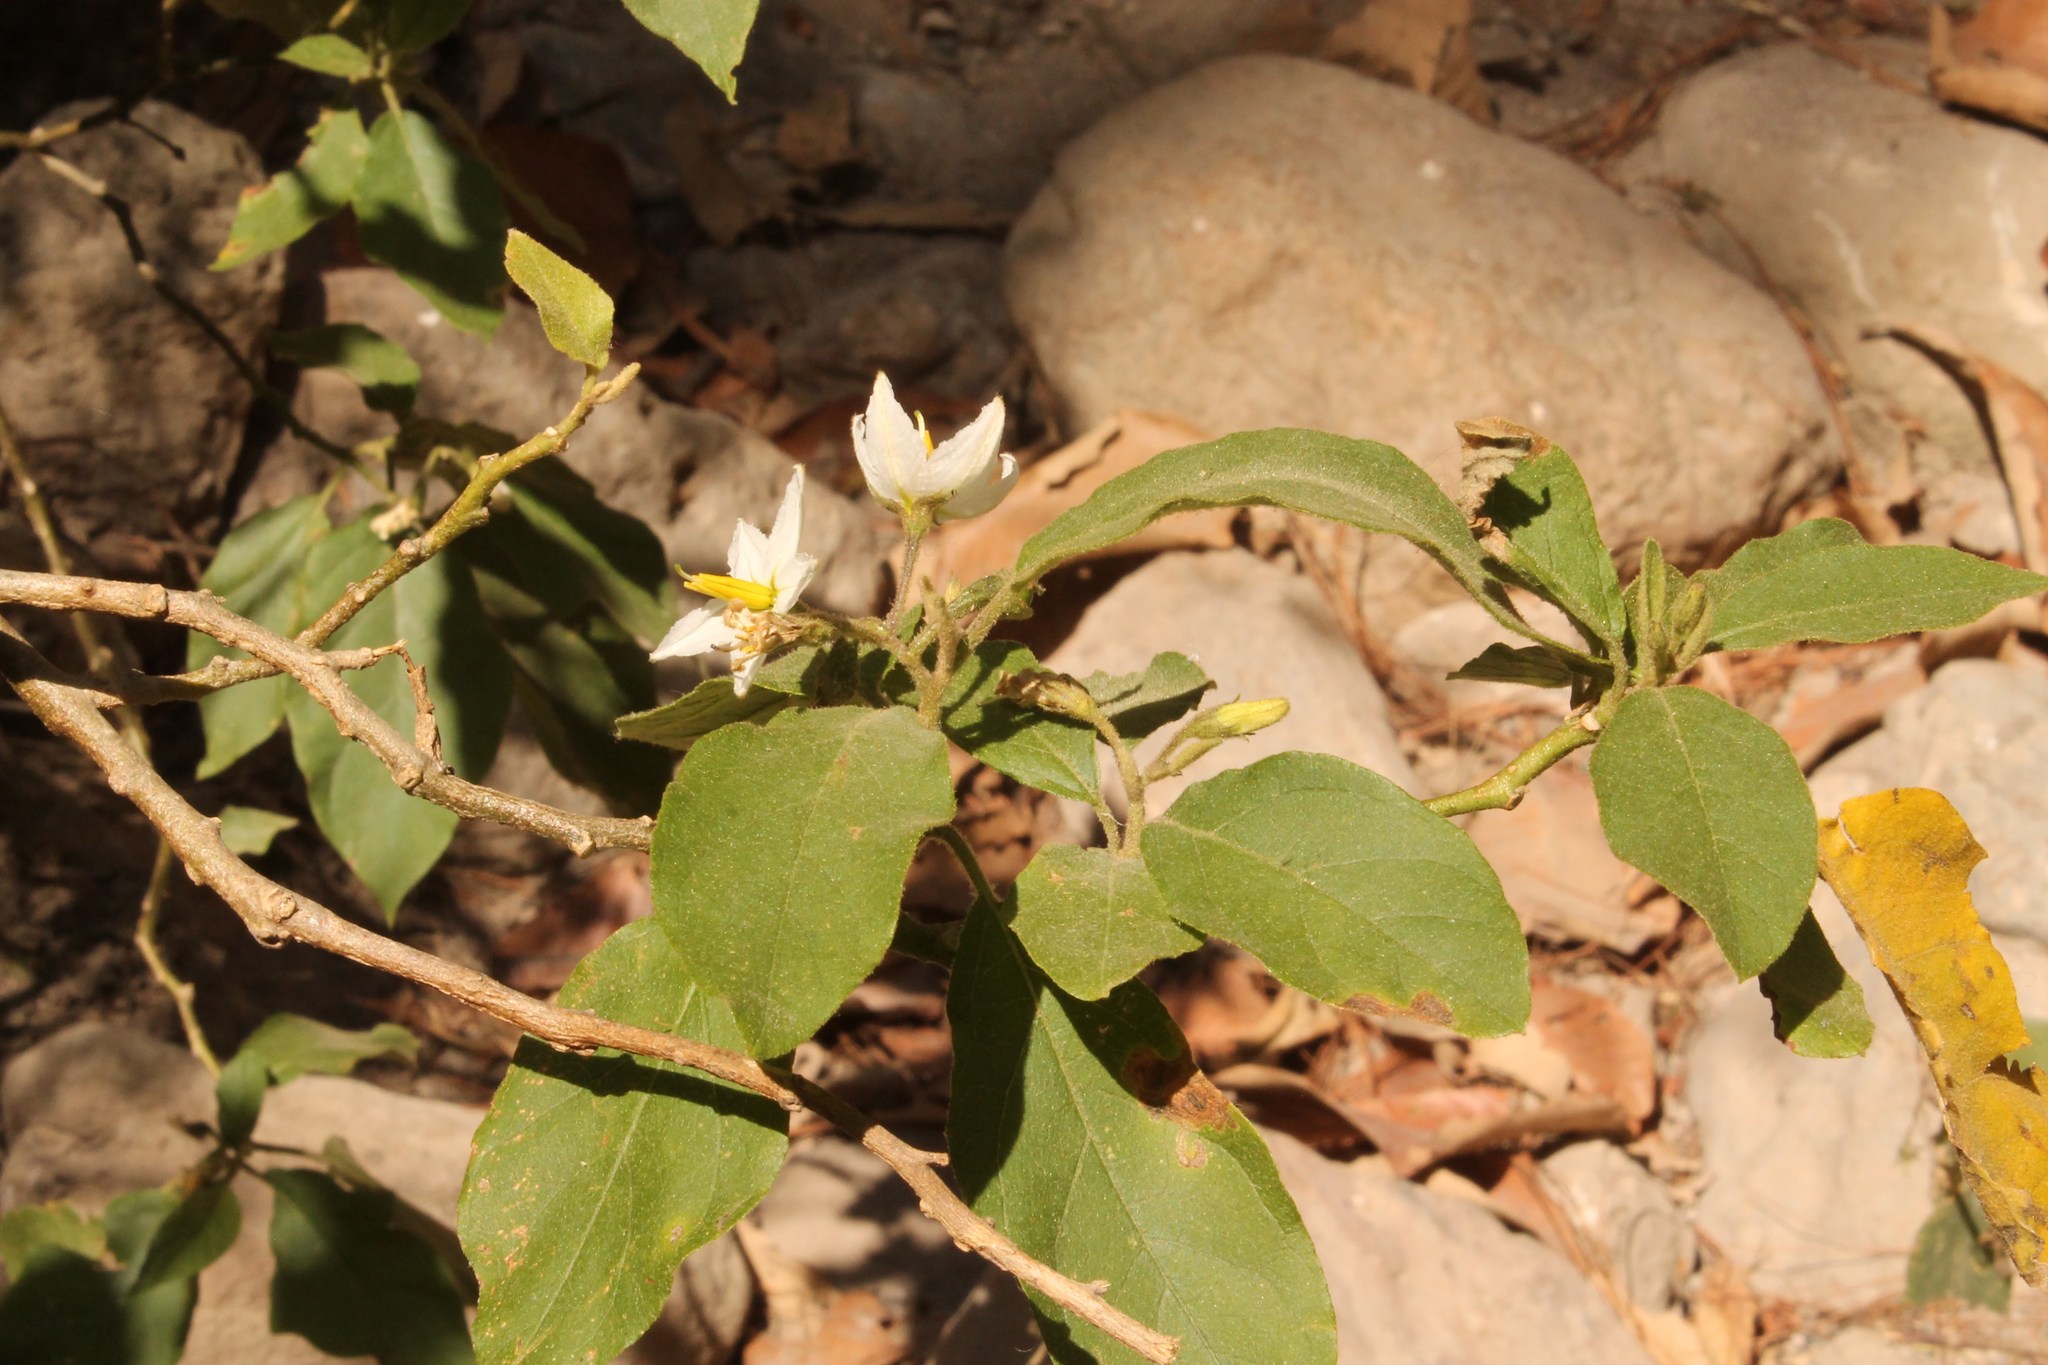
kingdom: Plantae
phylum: Tracheophyta
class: Magnoliopsida
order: Solanales
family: Solanaceae
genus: Solanum
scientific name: Solanum ferrugineum
